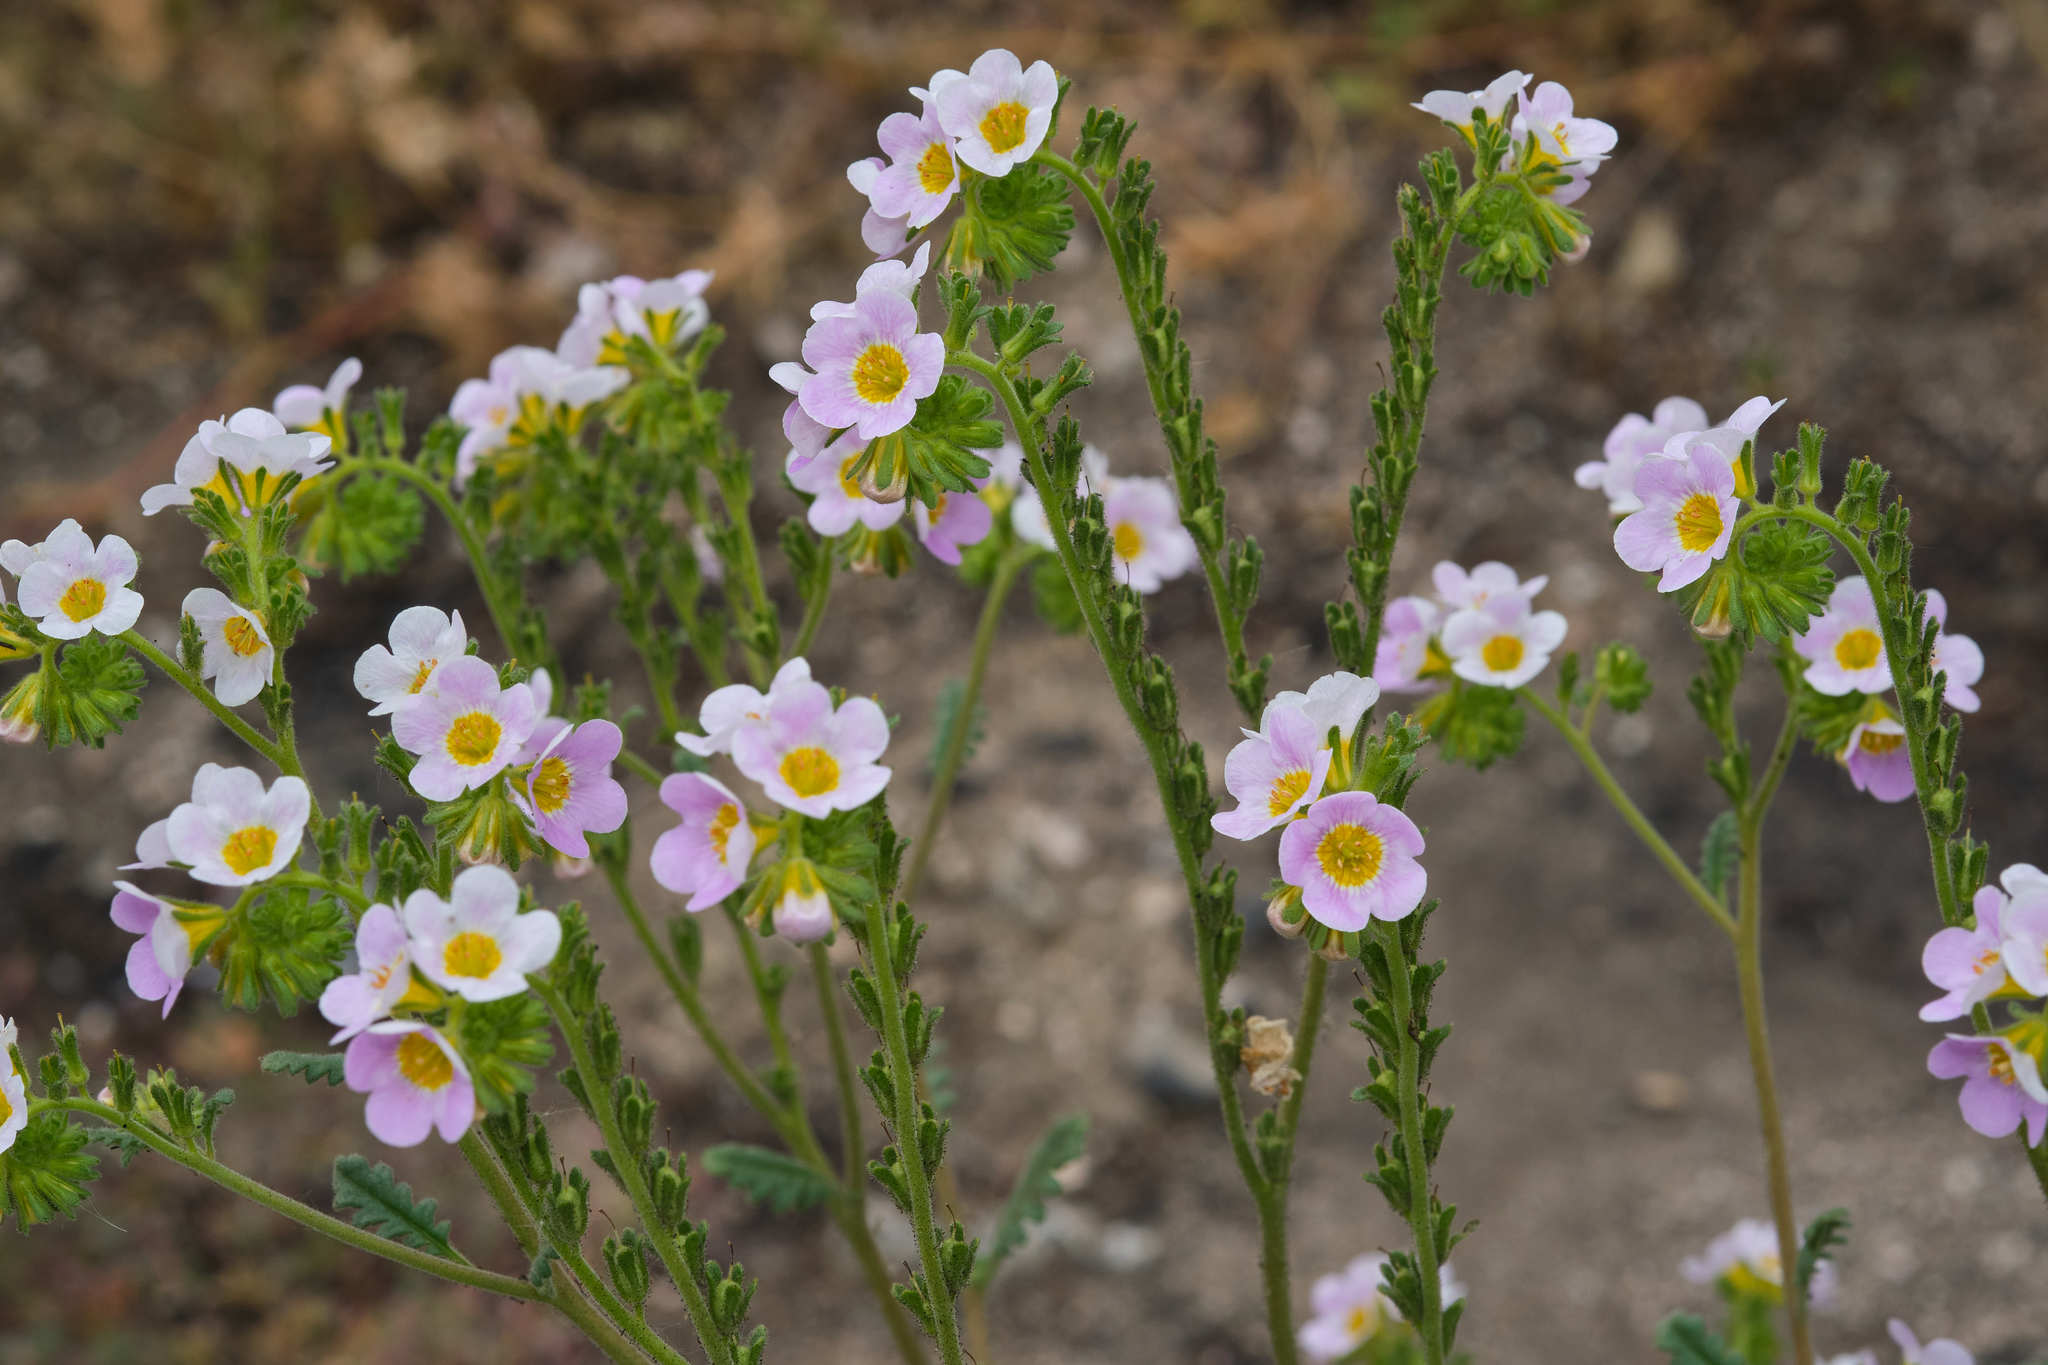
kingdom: Plantae
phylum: Tracheophyta
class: Magnoliopsida
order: Boraginales
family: Hydrophyllaceae
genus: Phacelia
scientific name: Phacelia brachyloba
